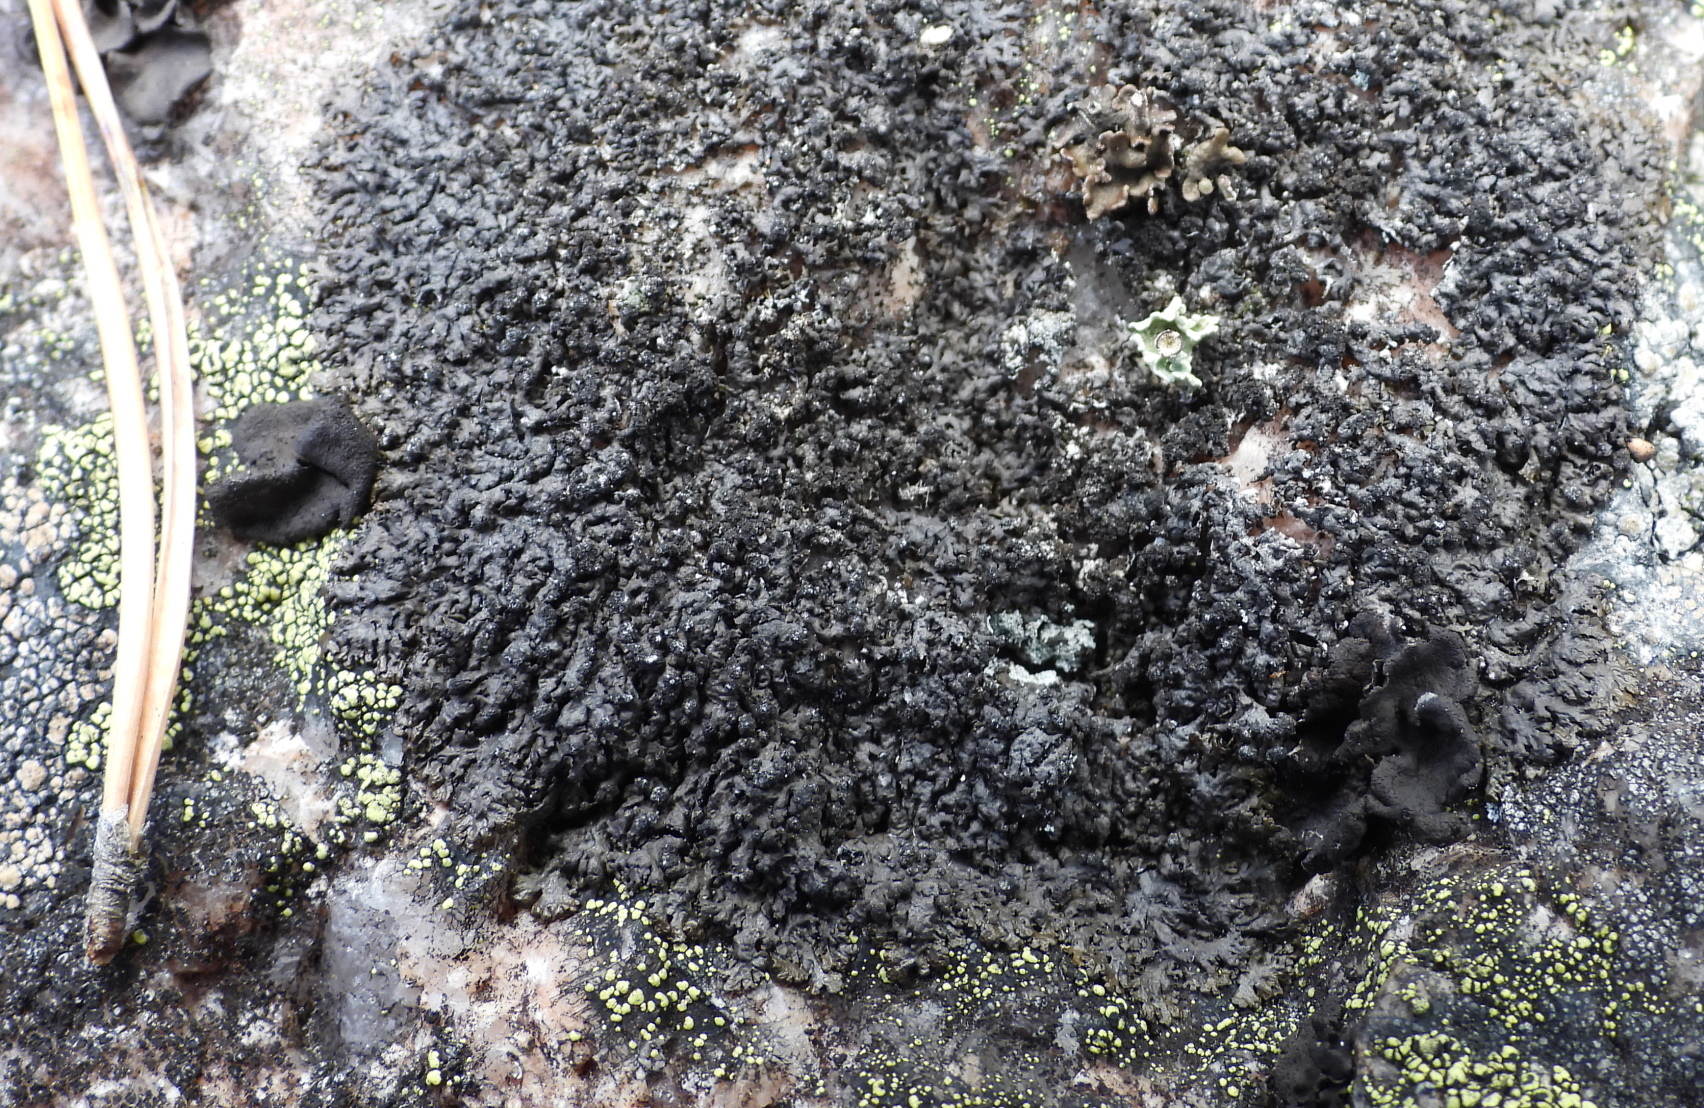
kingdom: Fungi
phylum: Ascomycota
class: Lecanoromycetes
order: Lecanorales
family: Parmeliaceae
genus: Montanelia
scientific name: Montanelia sorediata
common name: Powdered camouflage lichen
